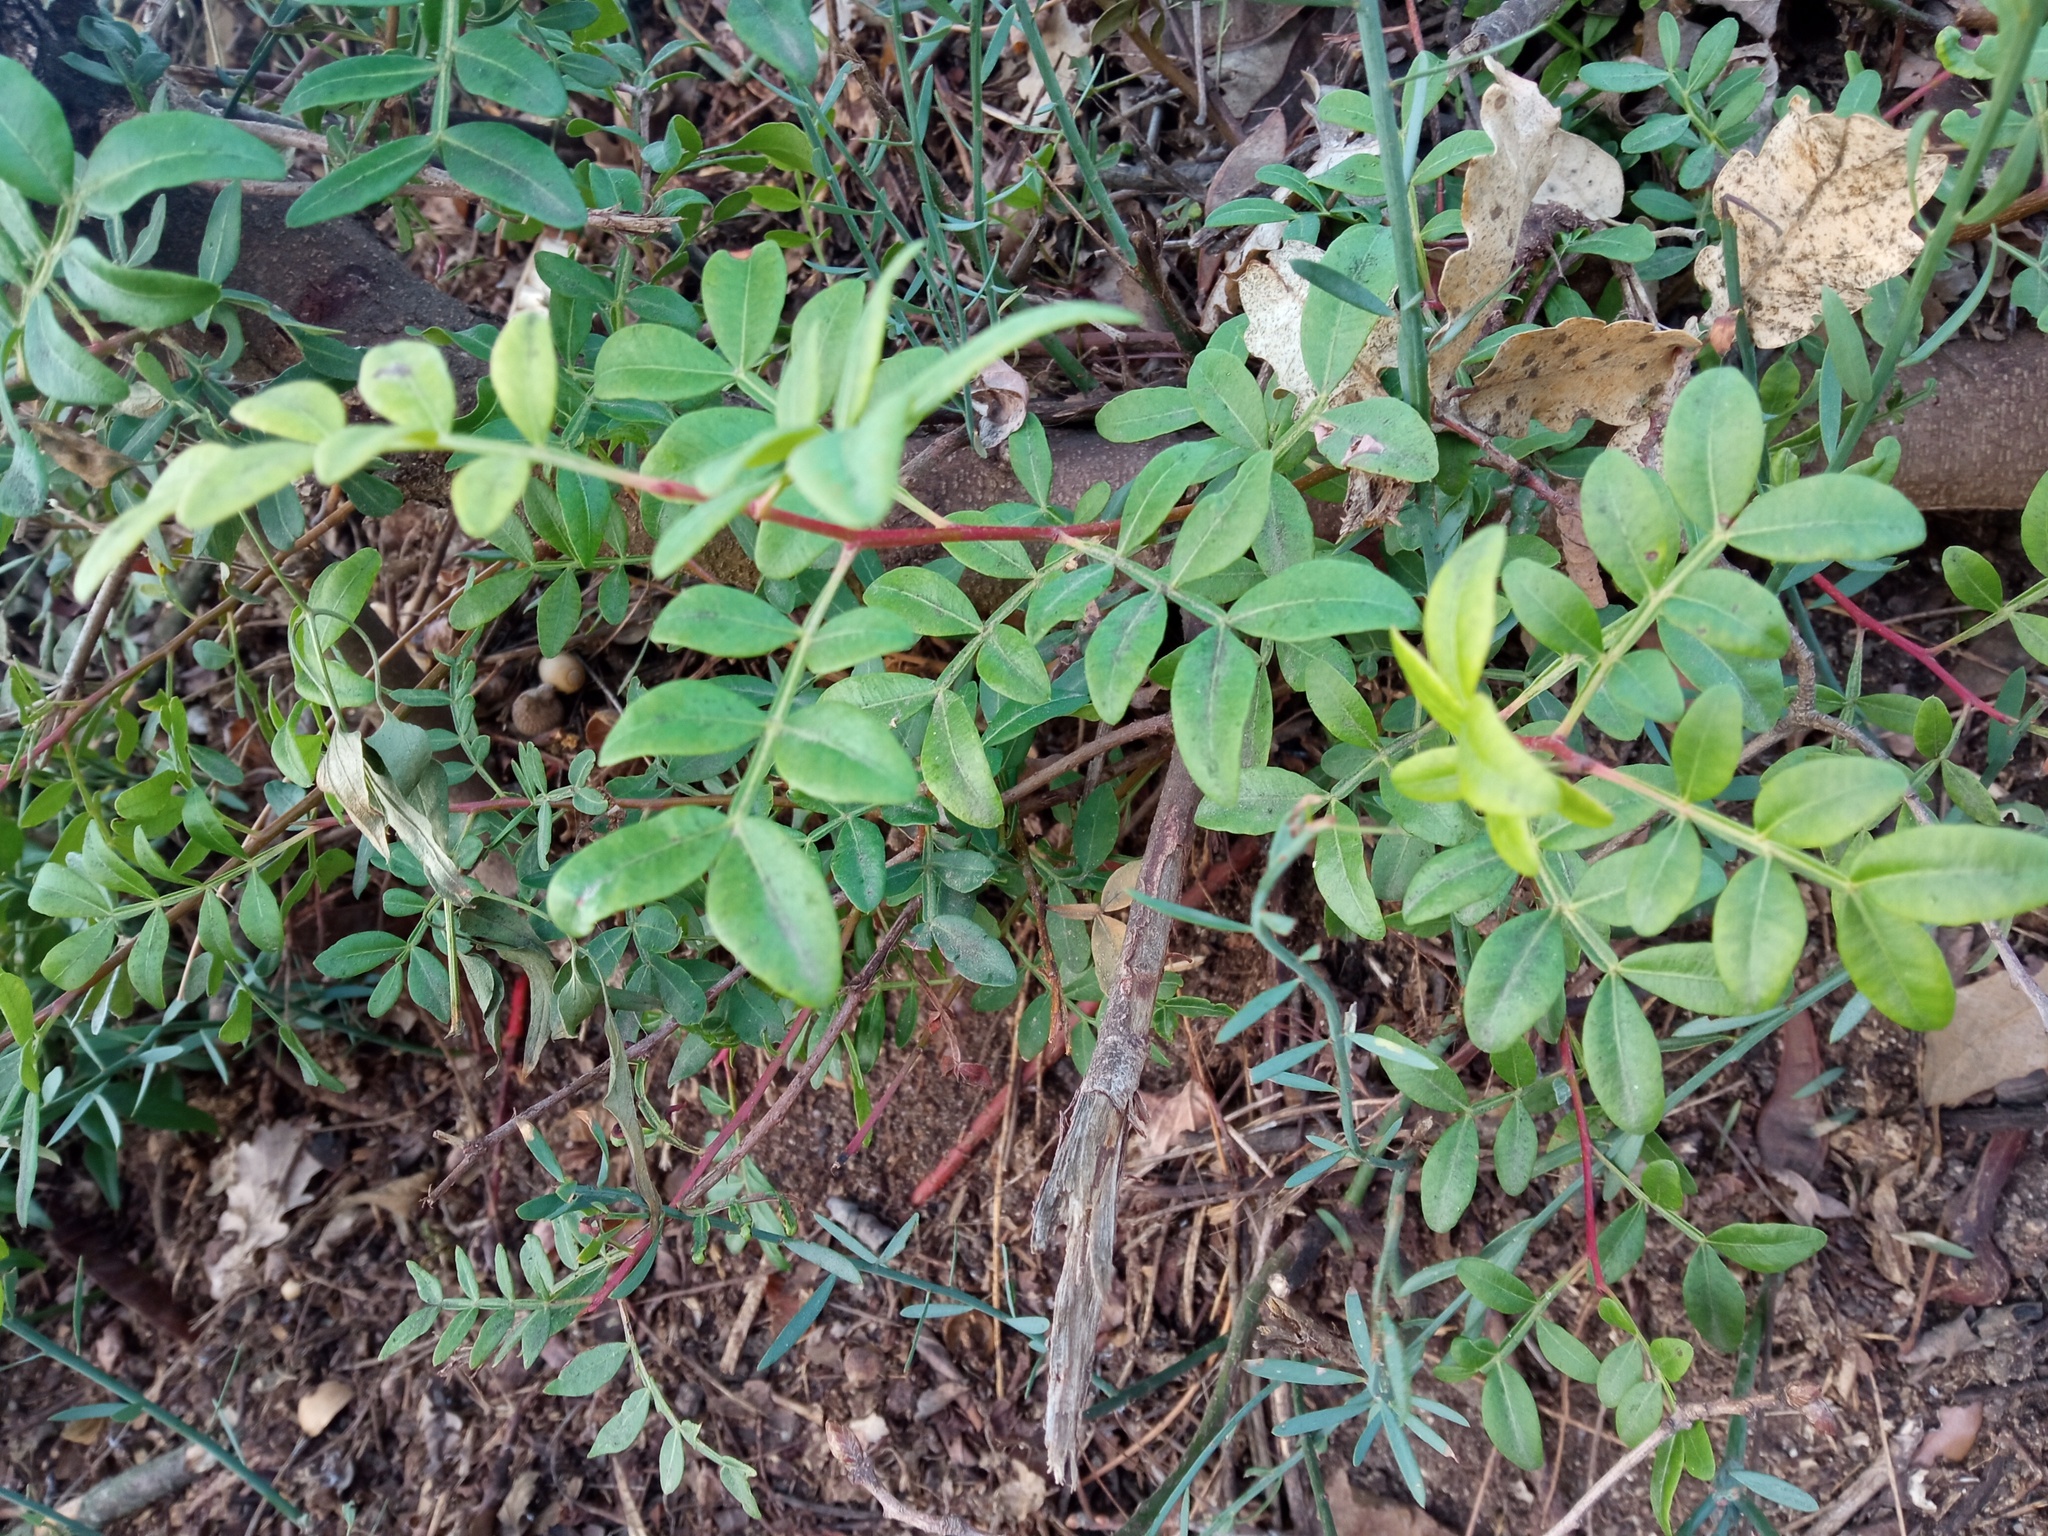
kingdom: Plantae
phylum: Tracheophyta
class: Magnoliopsida
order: Sapindales
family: Anacardiaceae
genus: Pistacia
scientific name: Pistacia lentiscus
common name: Lentisk
